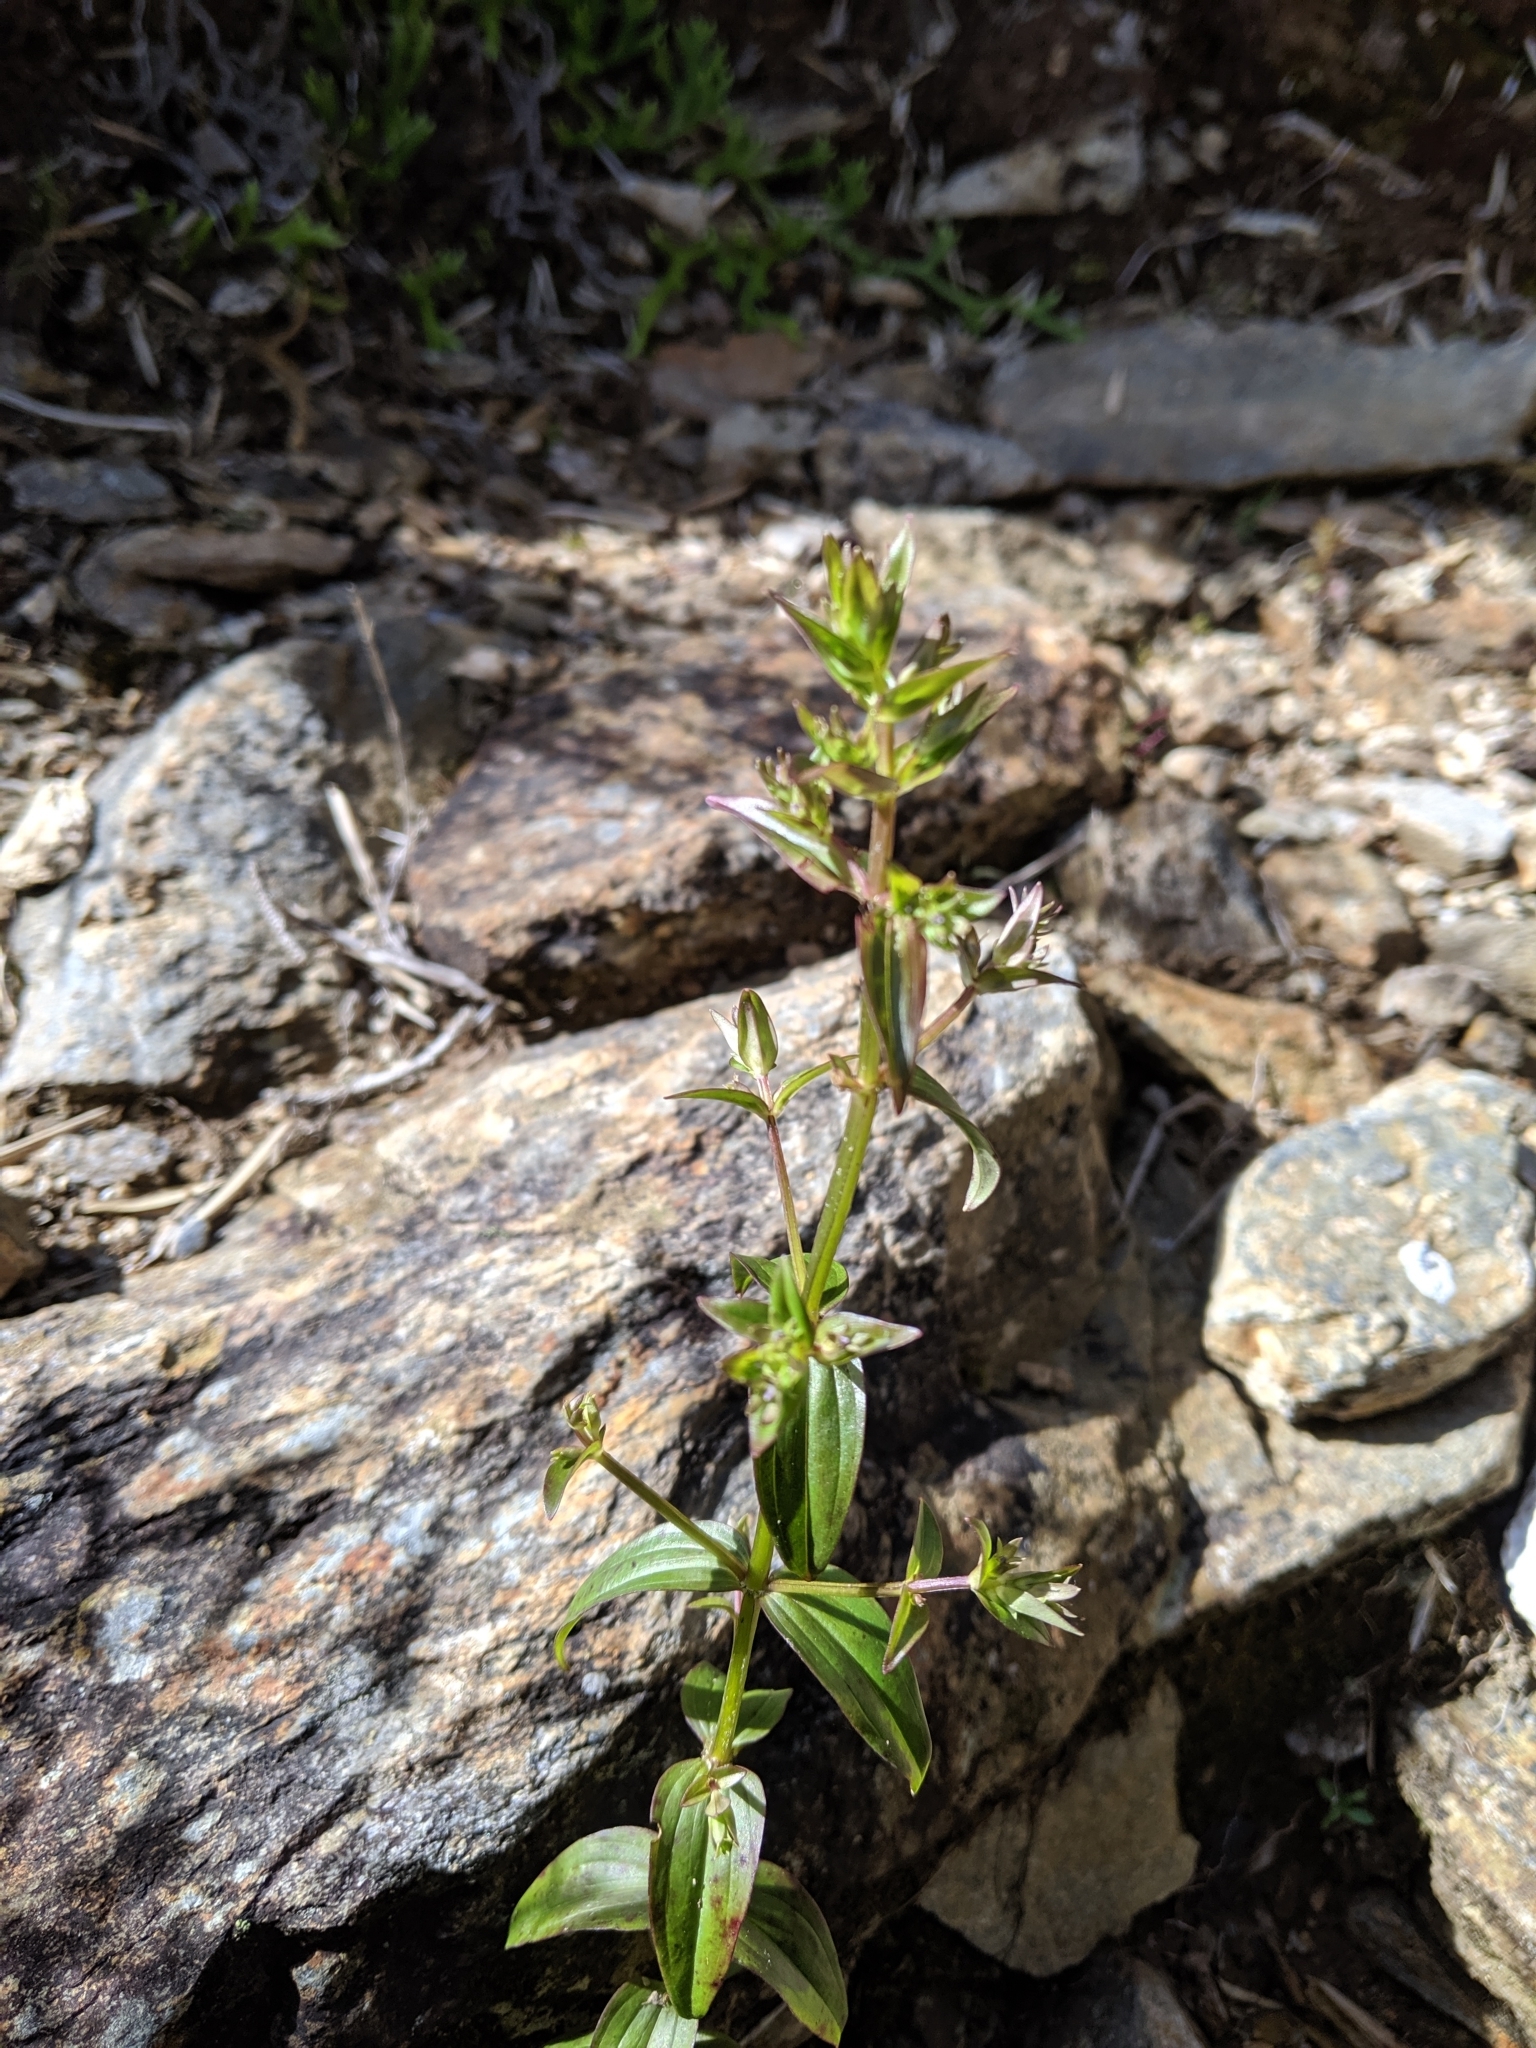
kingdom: Plantae
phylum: Tracheophyta
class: Magnoliopsida
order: Gentianales
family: Gentianaceae
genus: Swertia
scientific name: Swertia macrosperma
